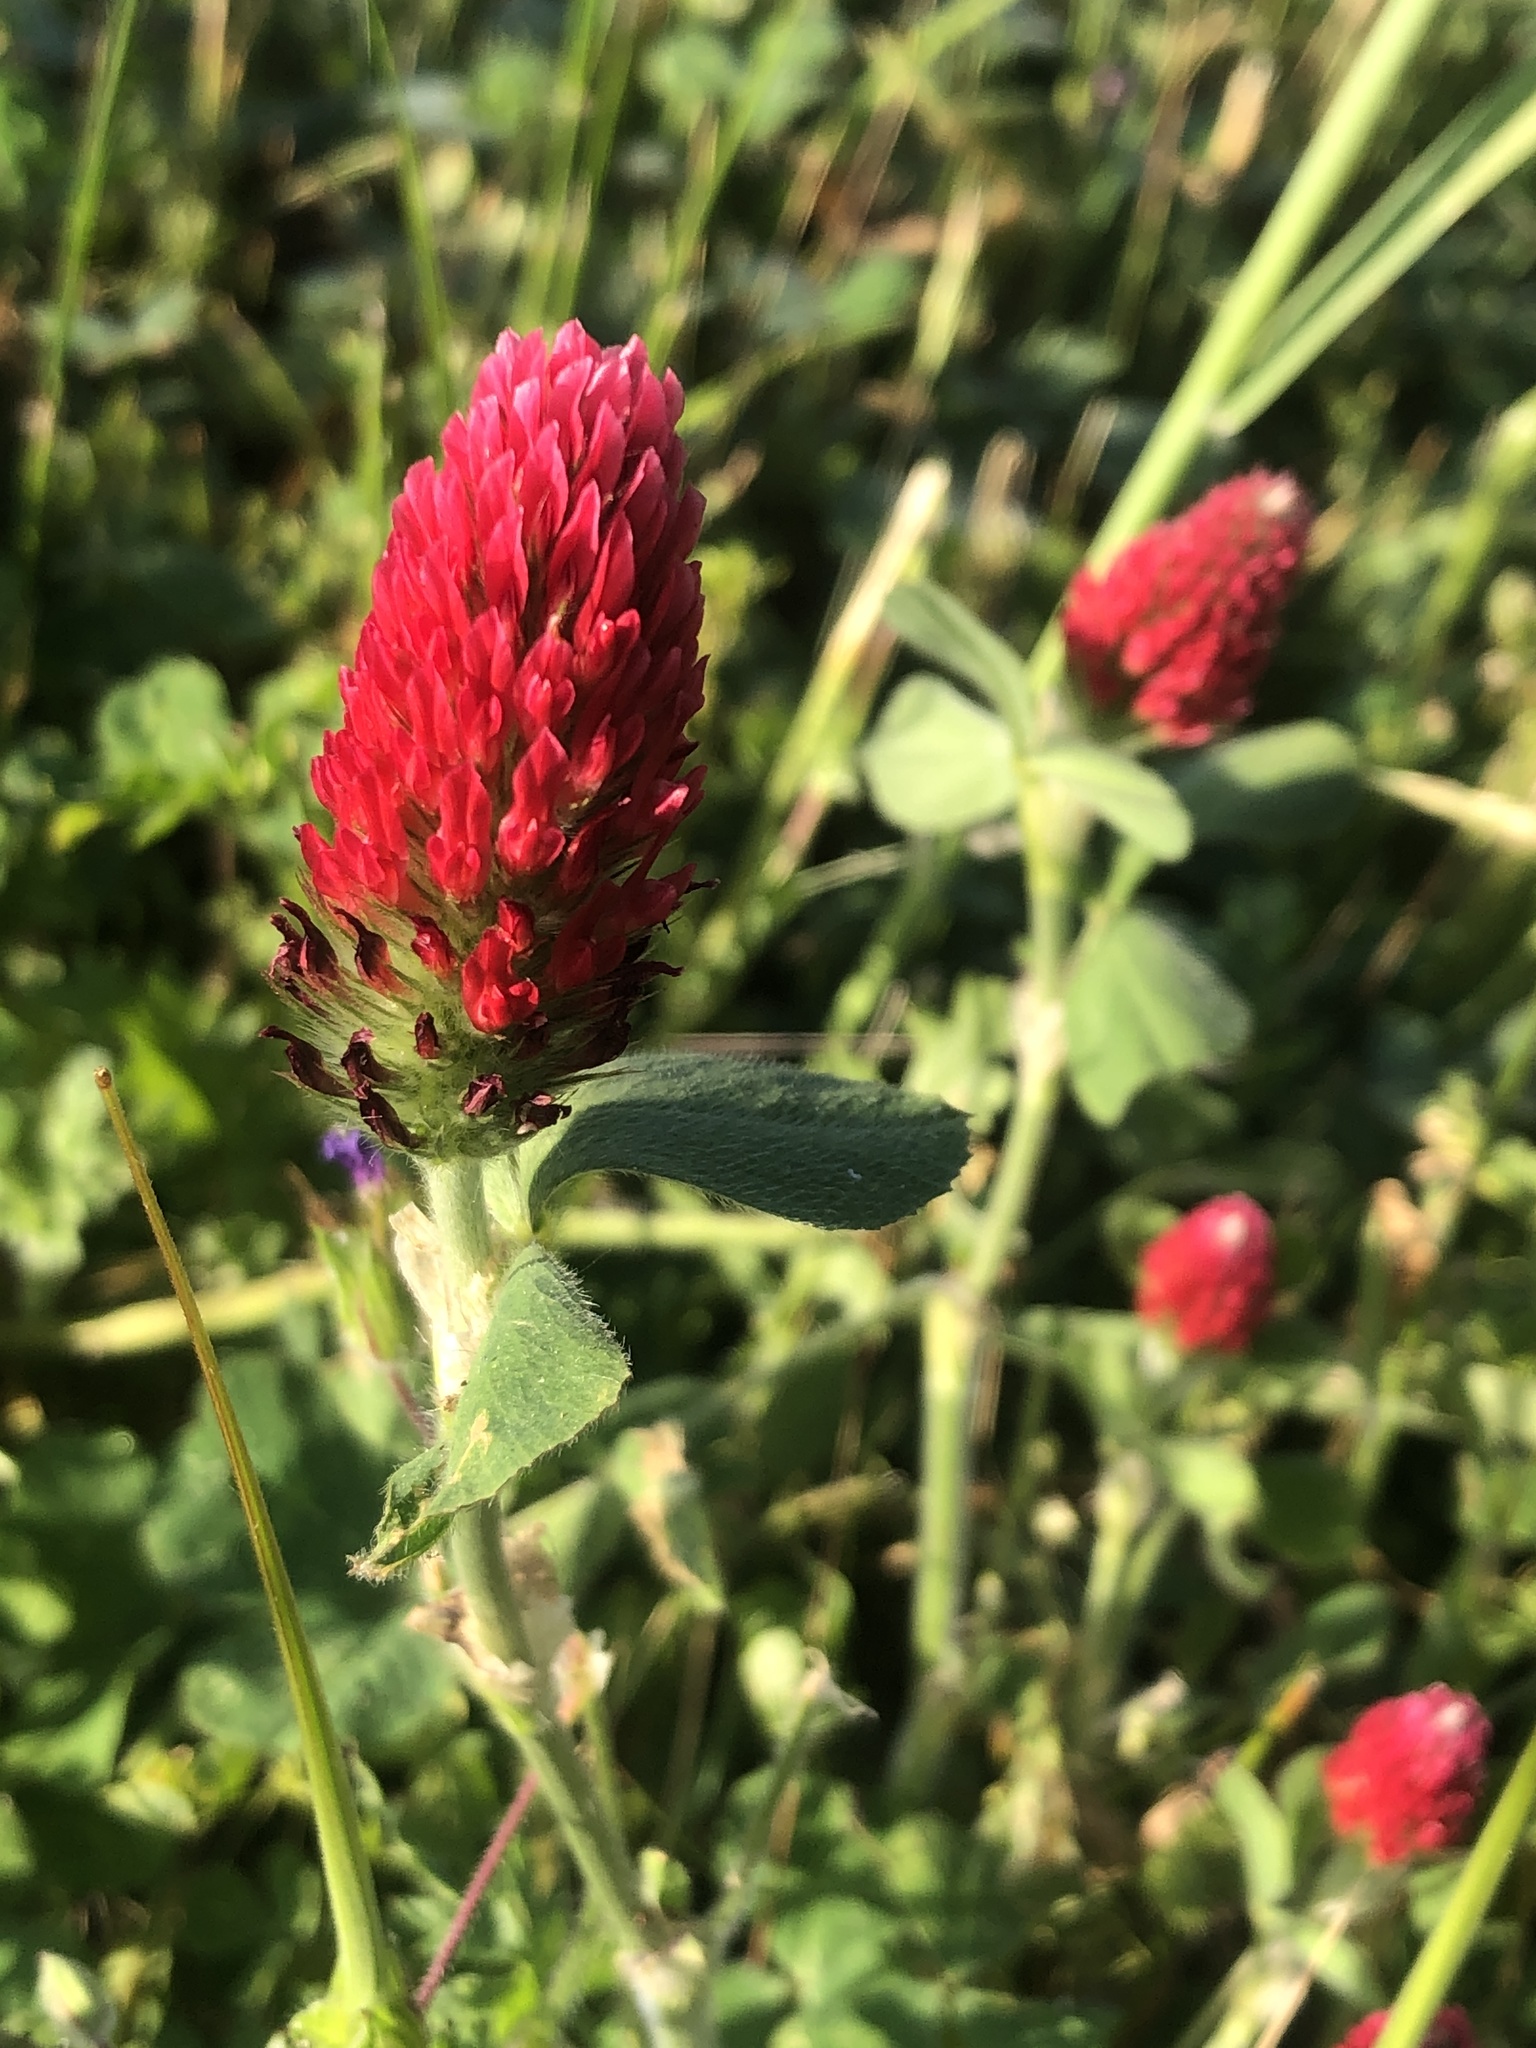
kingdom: Plantae
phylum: Tracheophyta
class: Magnoliopsida
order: Fabales
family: Fabaceae
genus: Trifolium
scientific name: Trifolium incarnatum
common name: Crimson clover
